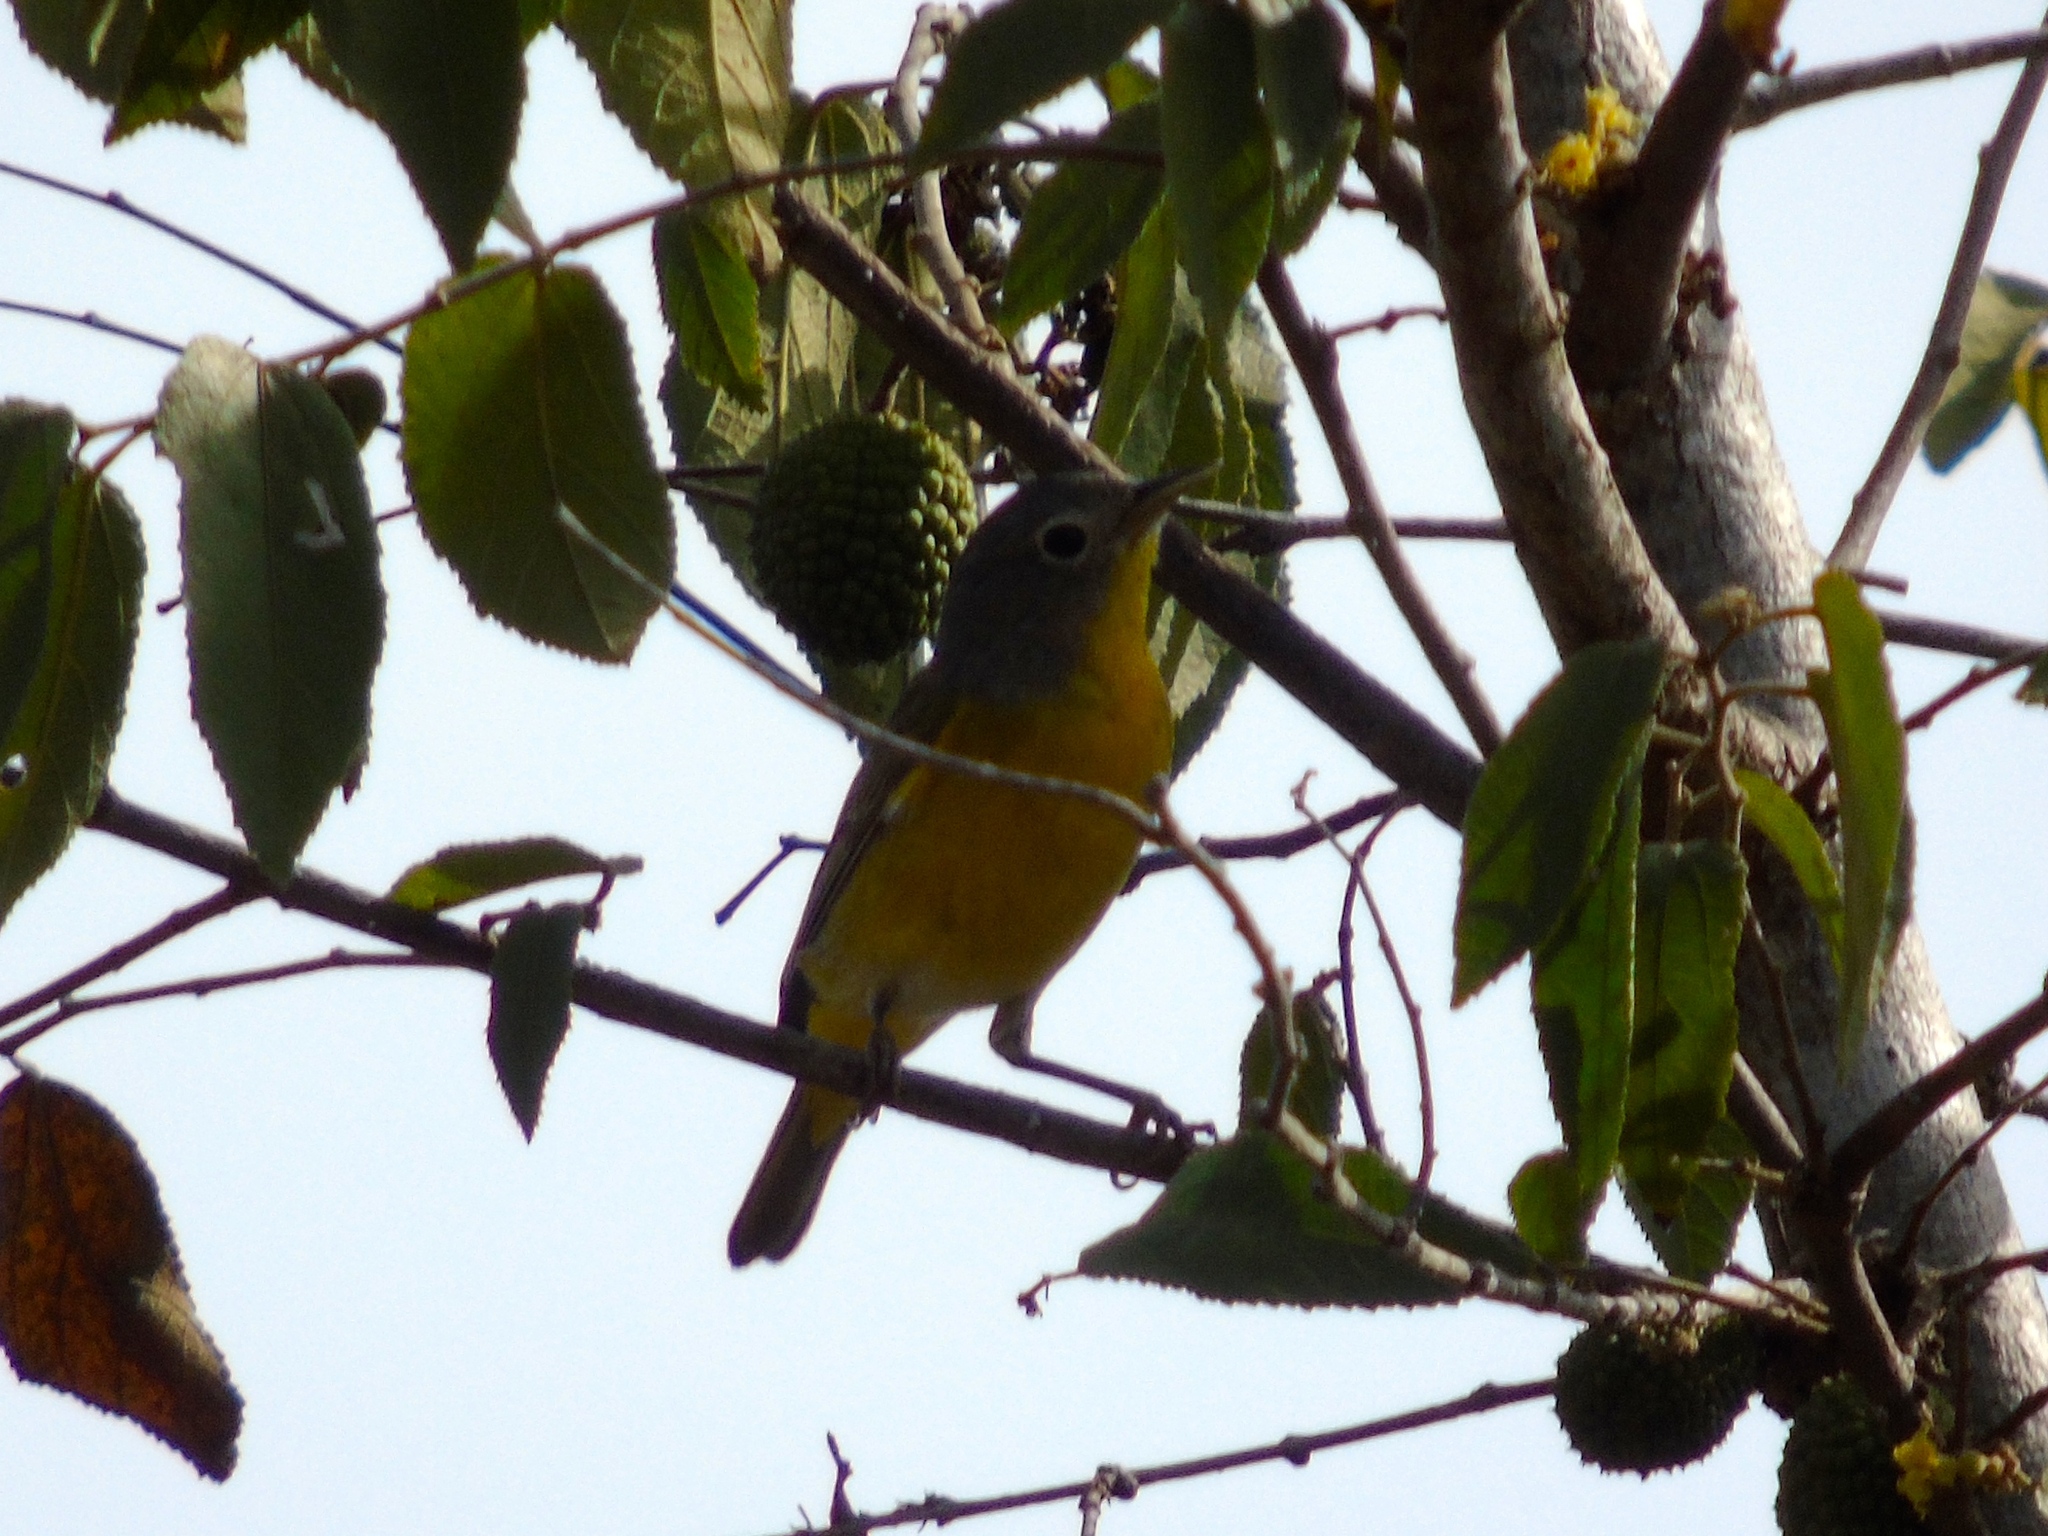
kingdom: Animalia
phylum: Chordata
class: Aves
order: Passeriformes
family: Parulidae
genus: Leiothlypis
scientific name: Leiothlypis ruficapilla
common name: Nashville warbler
